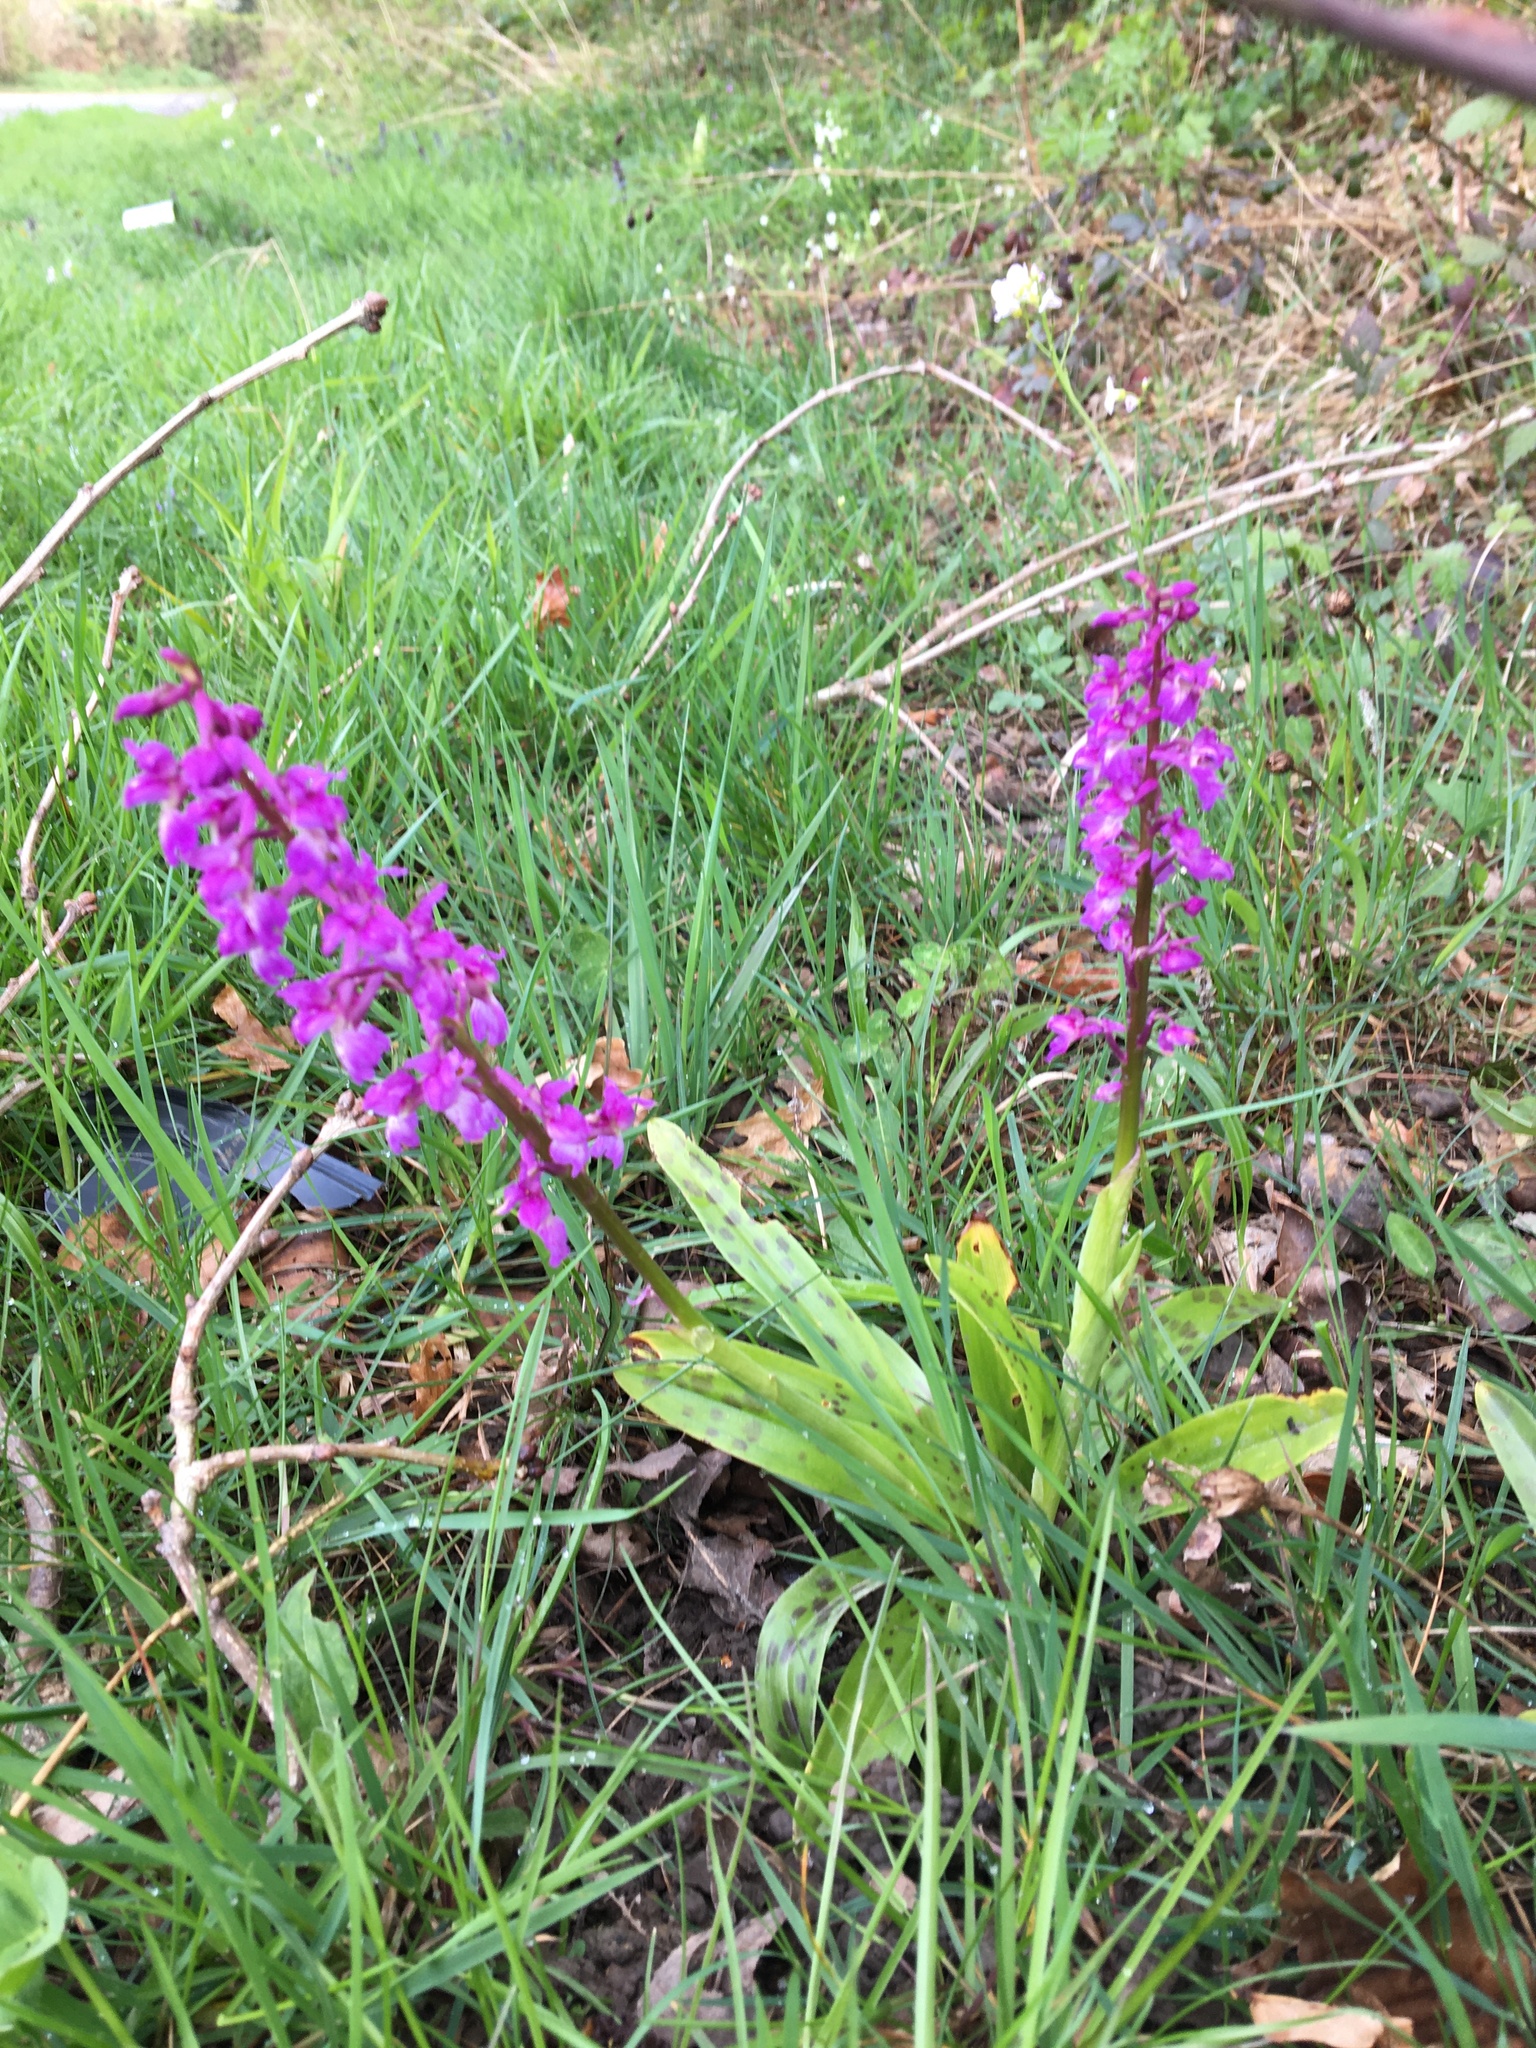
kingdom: Plantae
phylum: Tracheophyta
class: Liliopsida
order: Asparagales
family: Orchidaceae
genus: Orchis
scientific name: Orchis mascula
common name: Early-purple orchid
